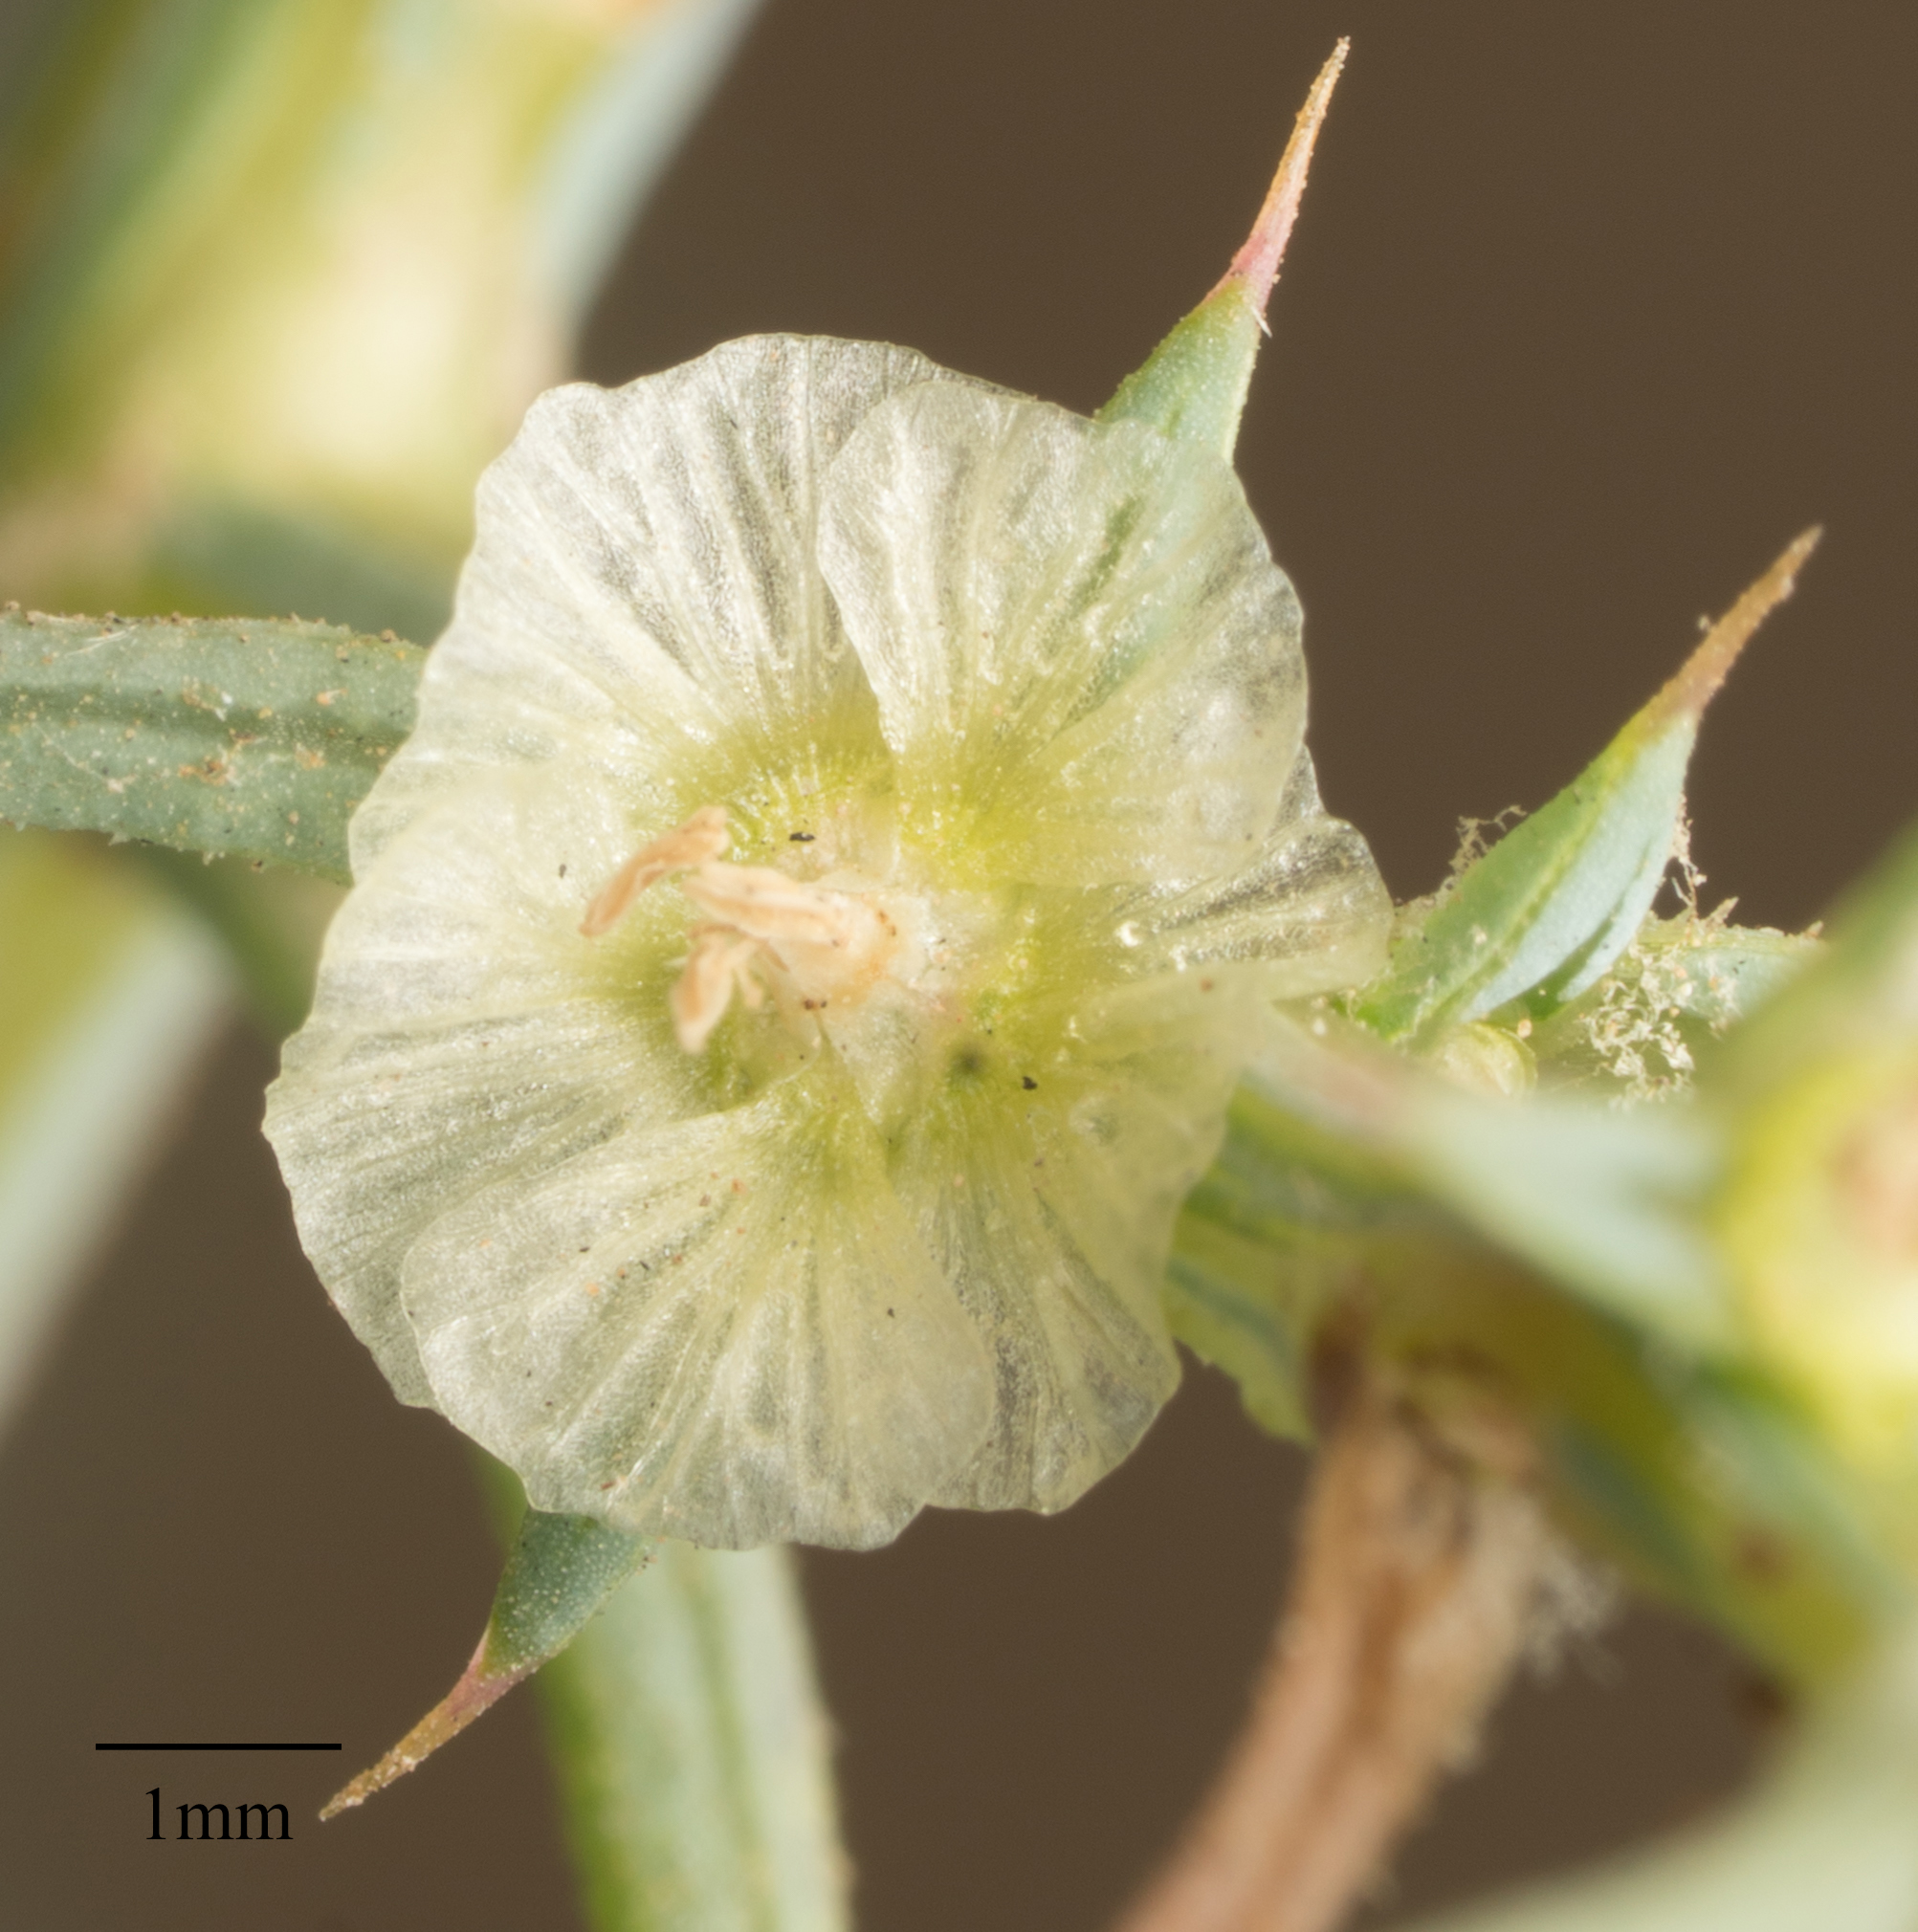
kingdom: Plantae
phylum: Tracheophyta
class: Magnoliopsida
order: Caryophyllales
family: Amaranthaceae
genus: Salsola
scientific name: Salsola australis
